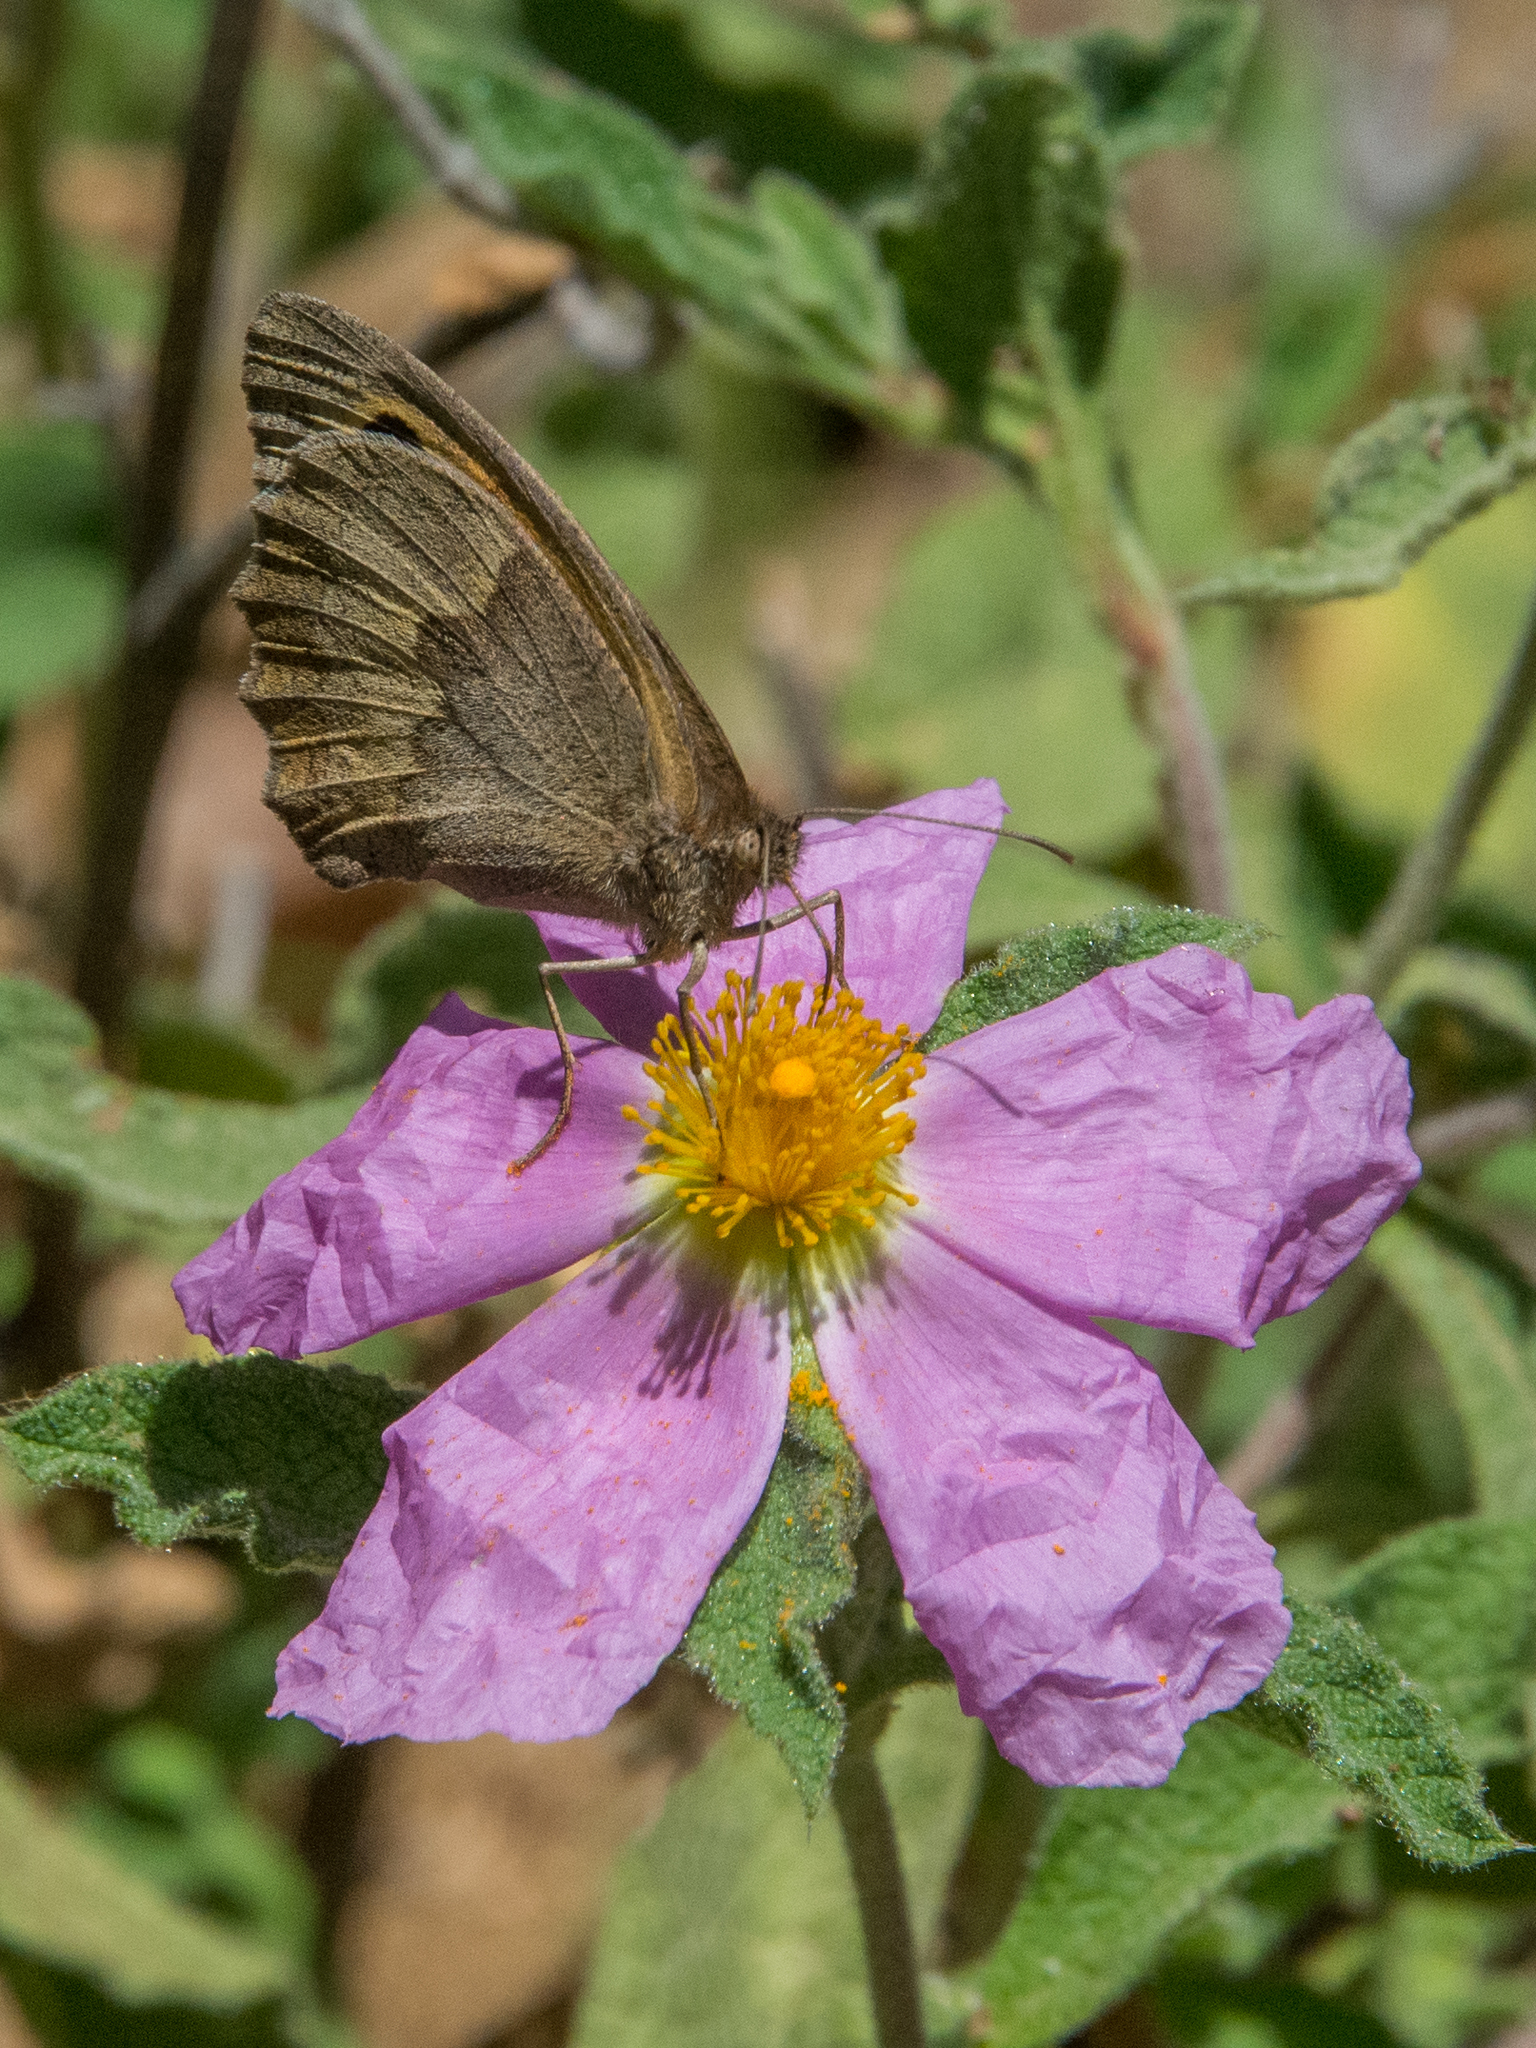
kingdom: Animalia
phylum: Arthropoda
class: Insecta
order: Lepidoptera
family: Nymphalidae
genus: Maniola
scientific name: Maniola jurtina
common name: Meadow brown
